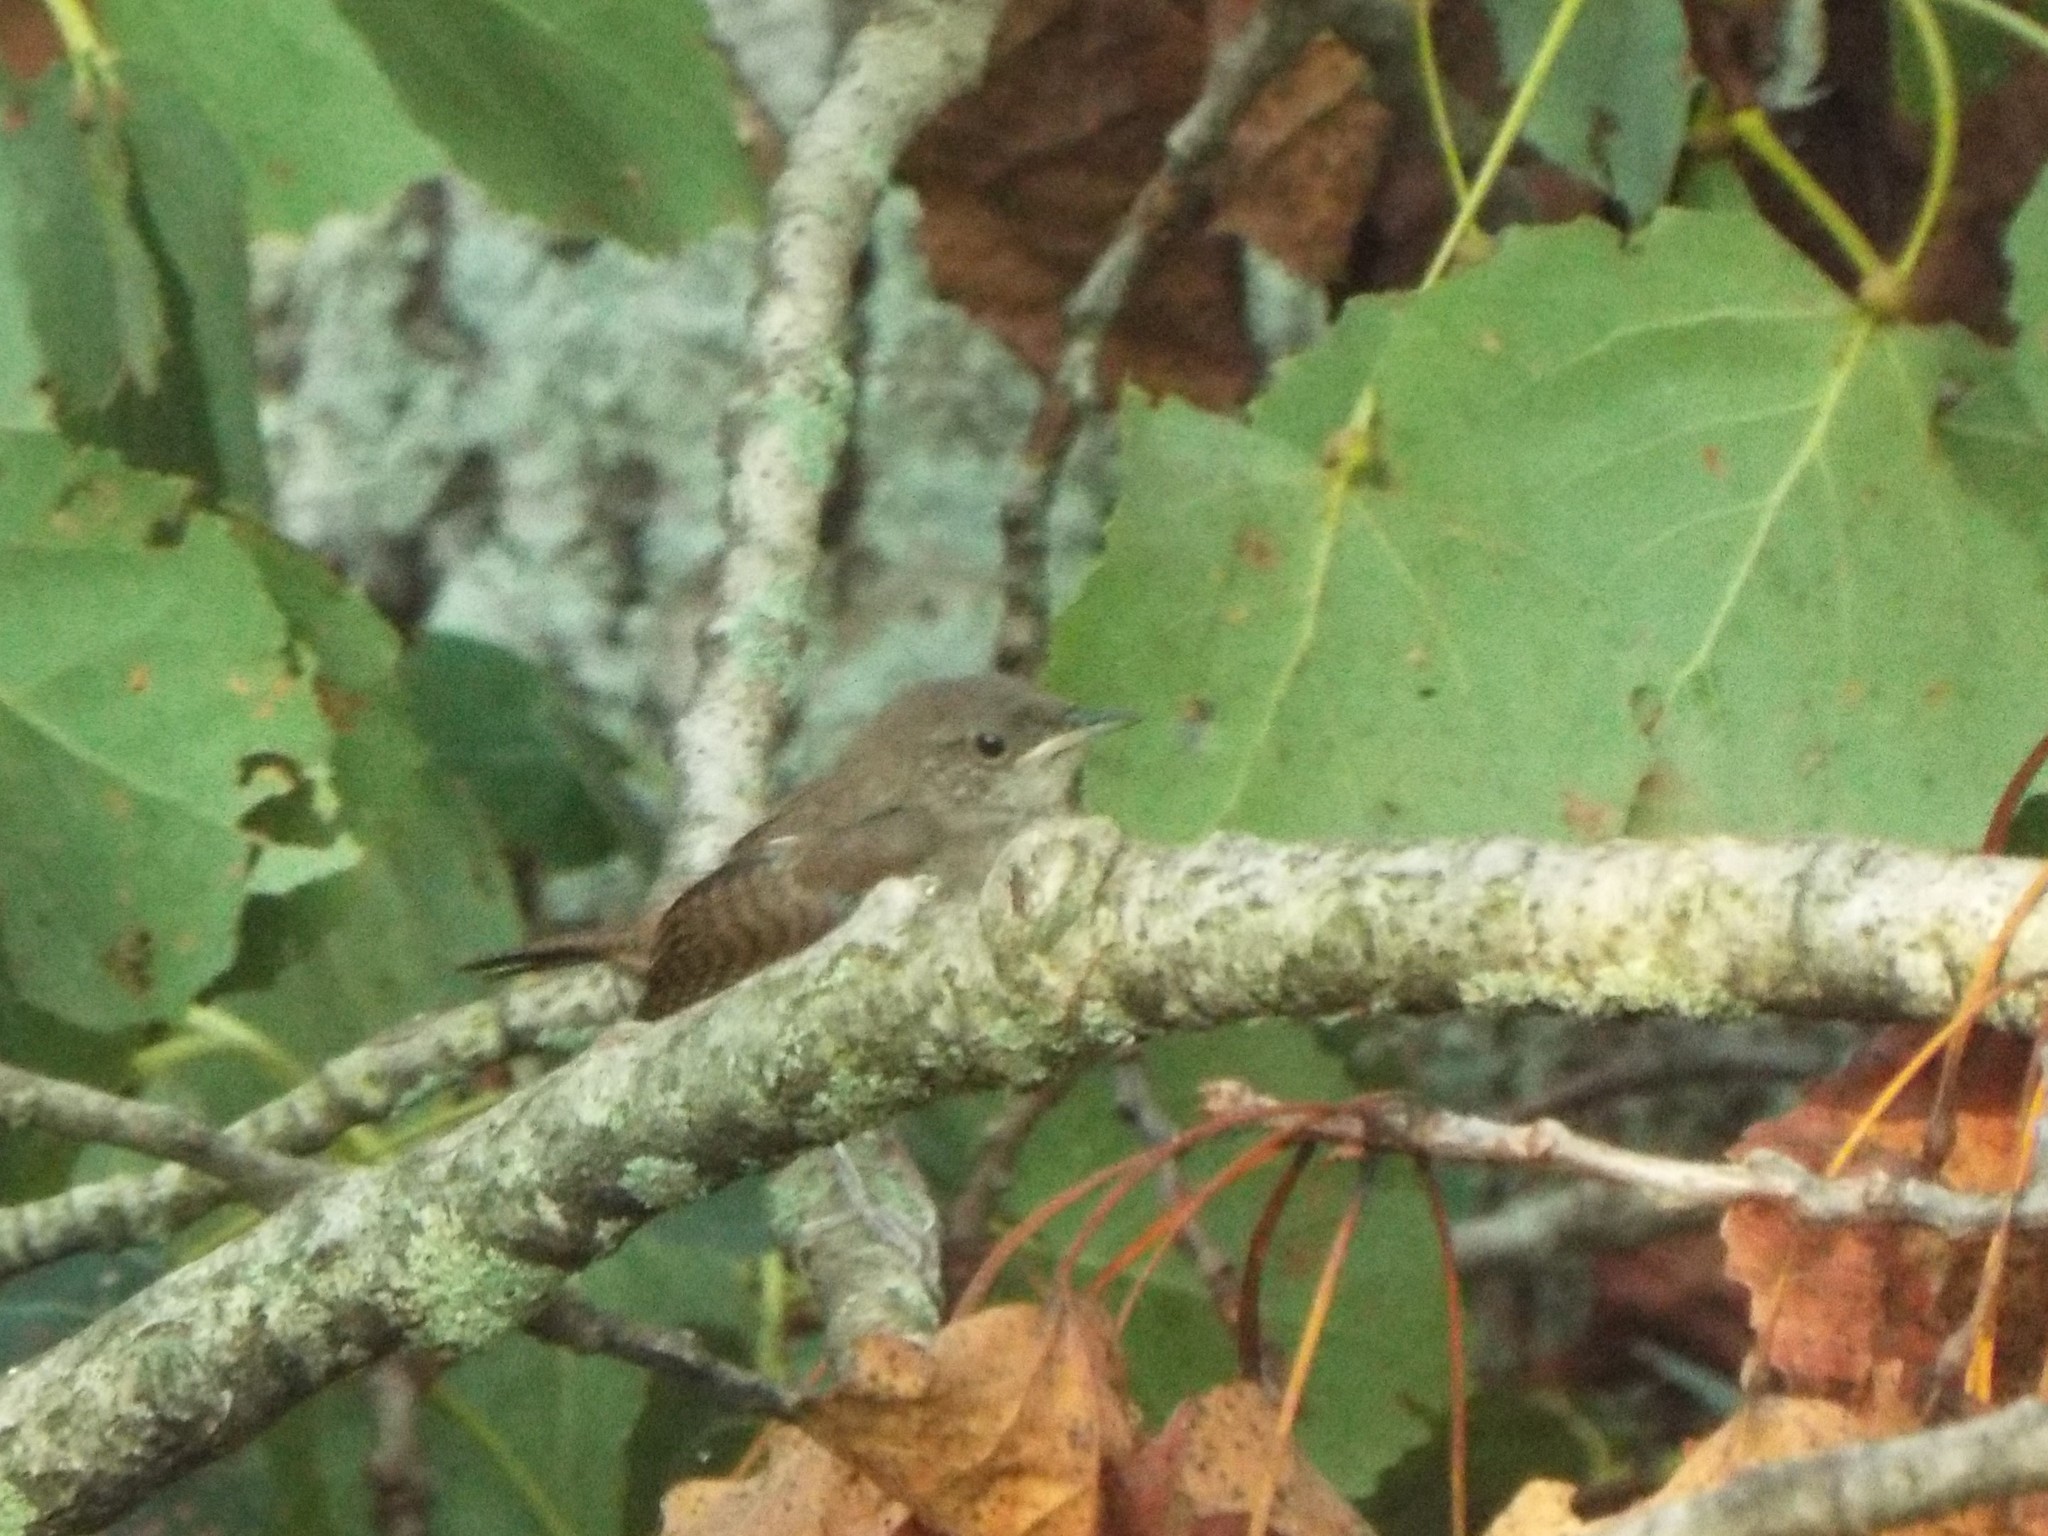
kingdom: Animalia
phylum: Chordata
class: Aves
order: Passeriformes
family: Troglodytidae
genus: Troglodytes
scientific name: Troglodytes aedon
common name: House wren
